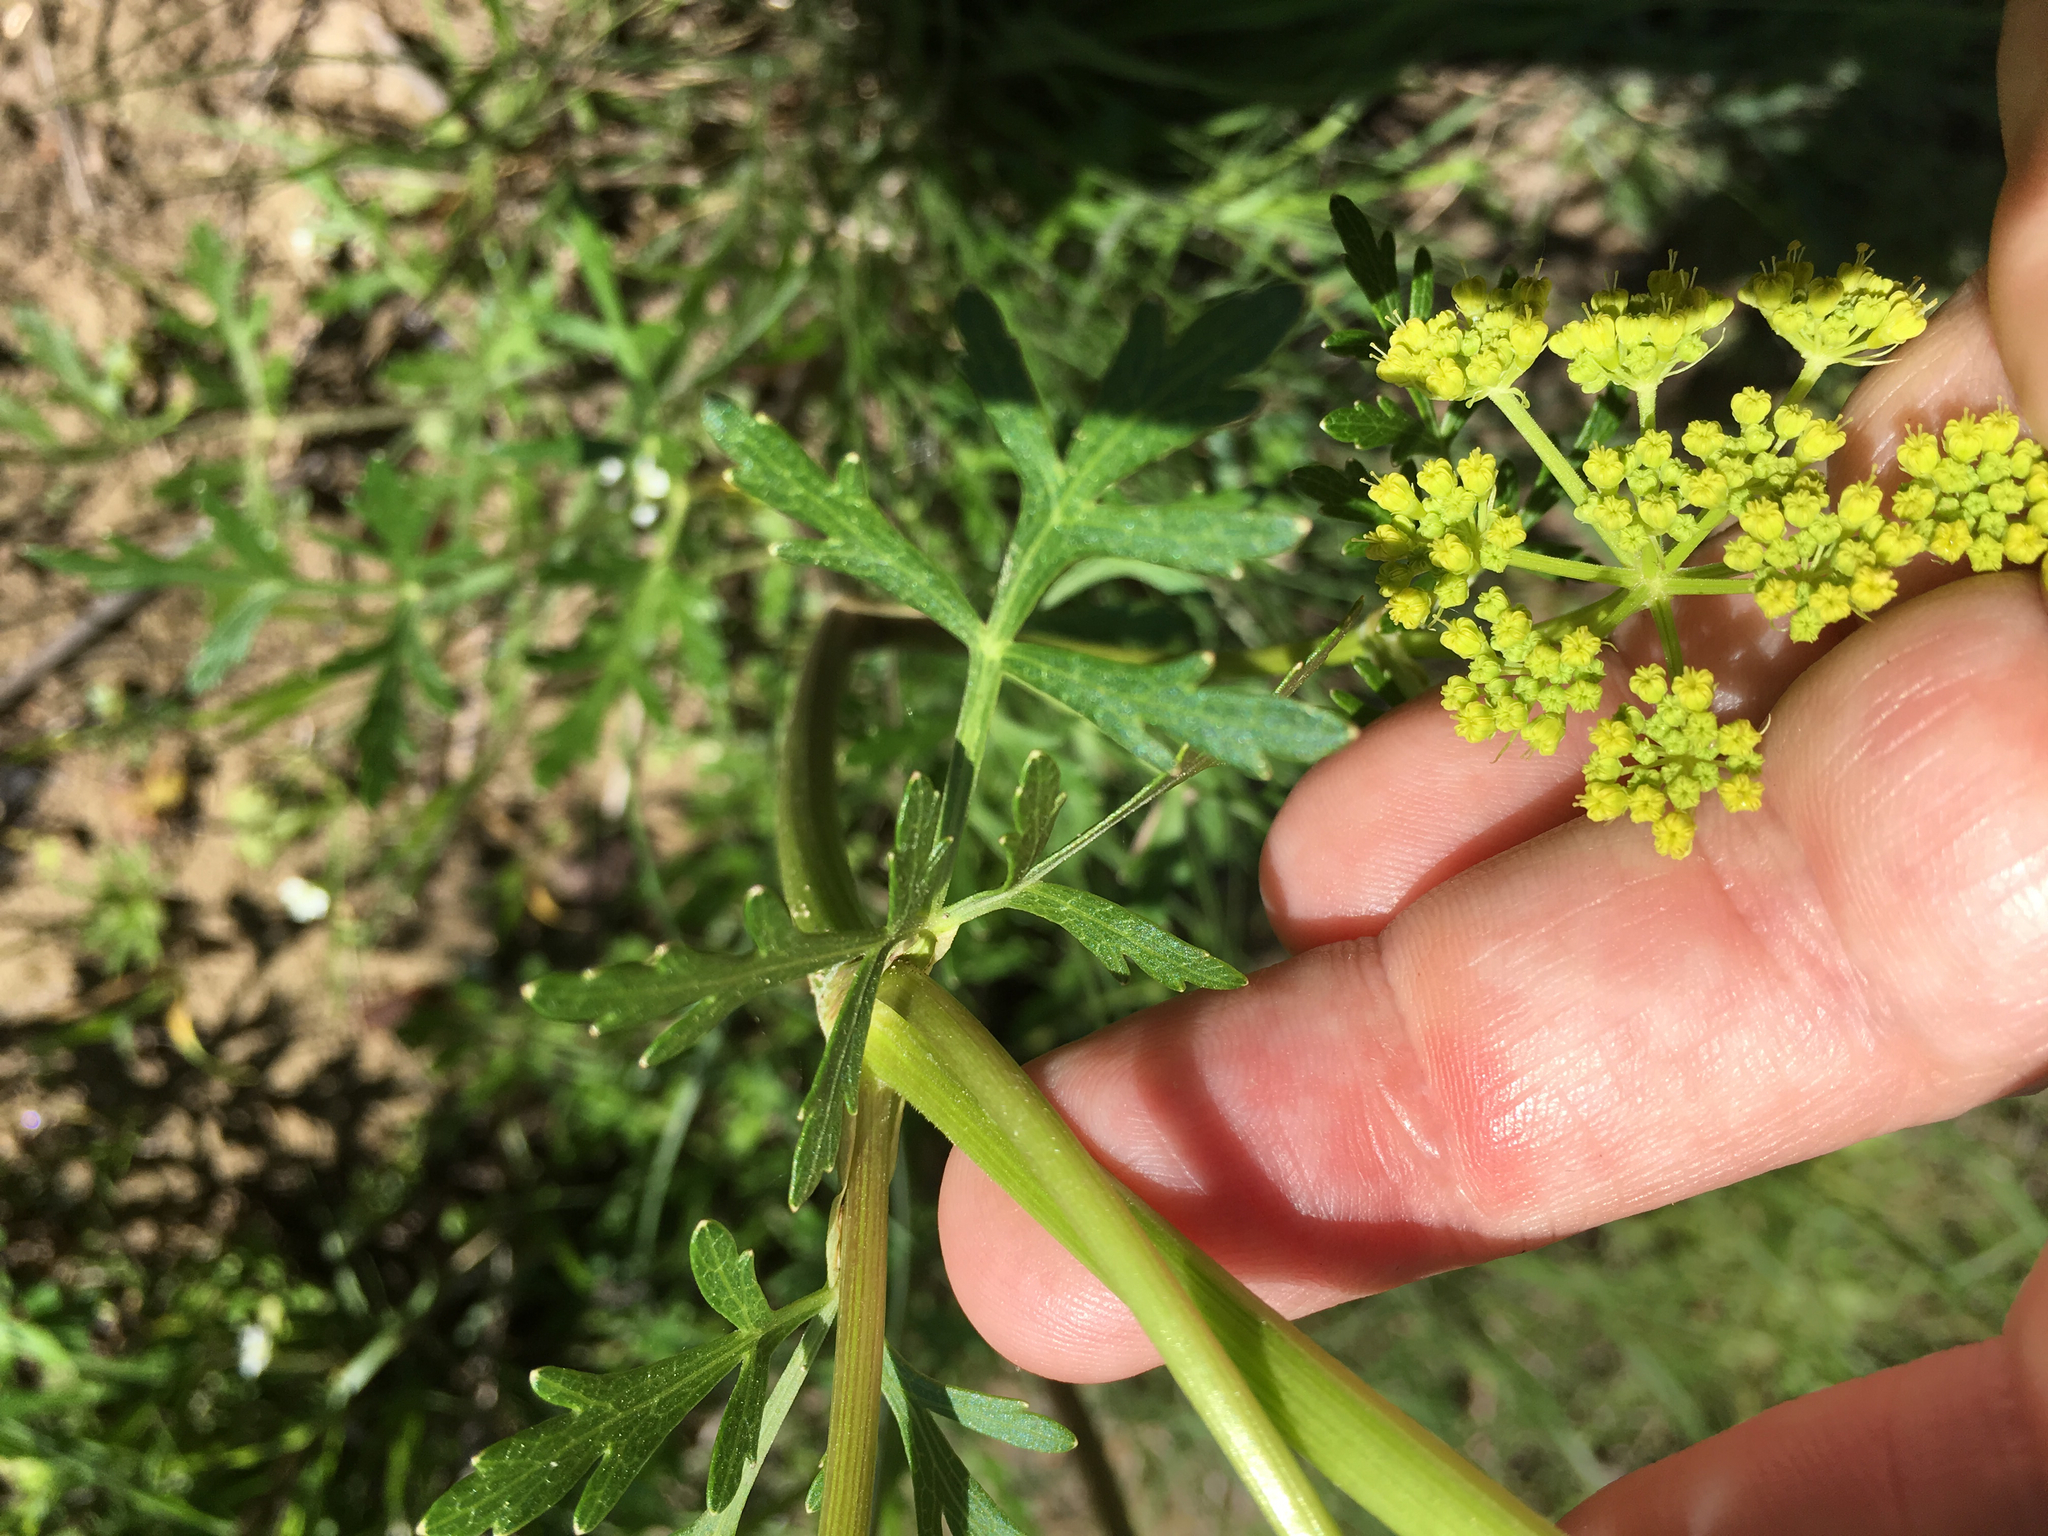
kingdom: Plantae
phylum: Tracheophyta
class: Magnoliopsida
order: Apiales
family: Apiaceae
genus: Polytaenia
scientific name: Polytaenia nuttallii
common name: Prairie-parsley
